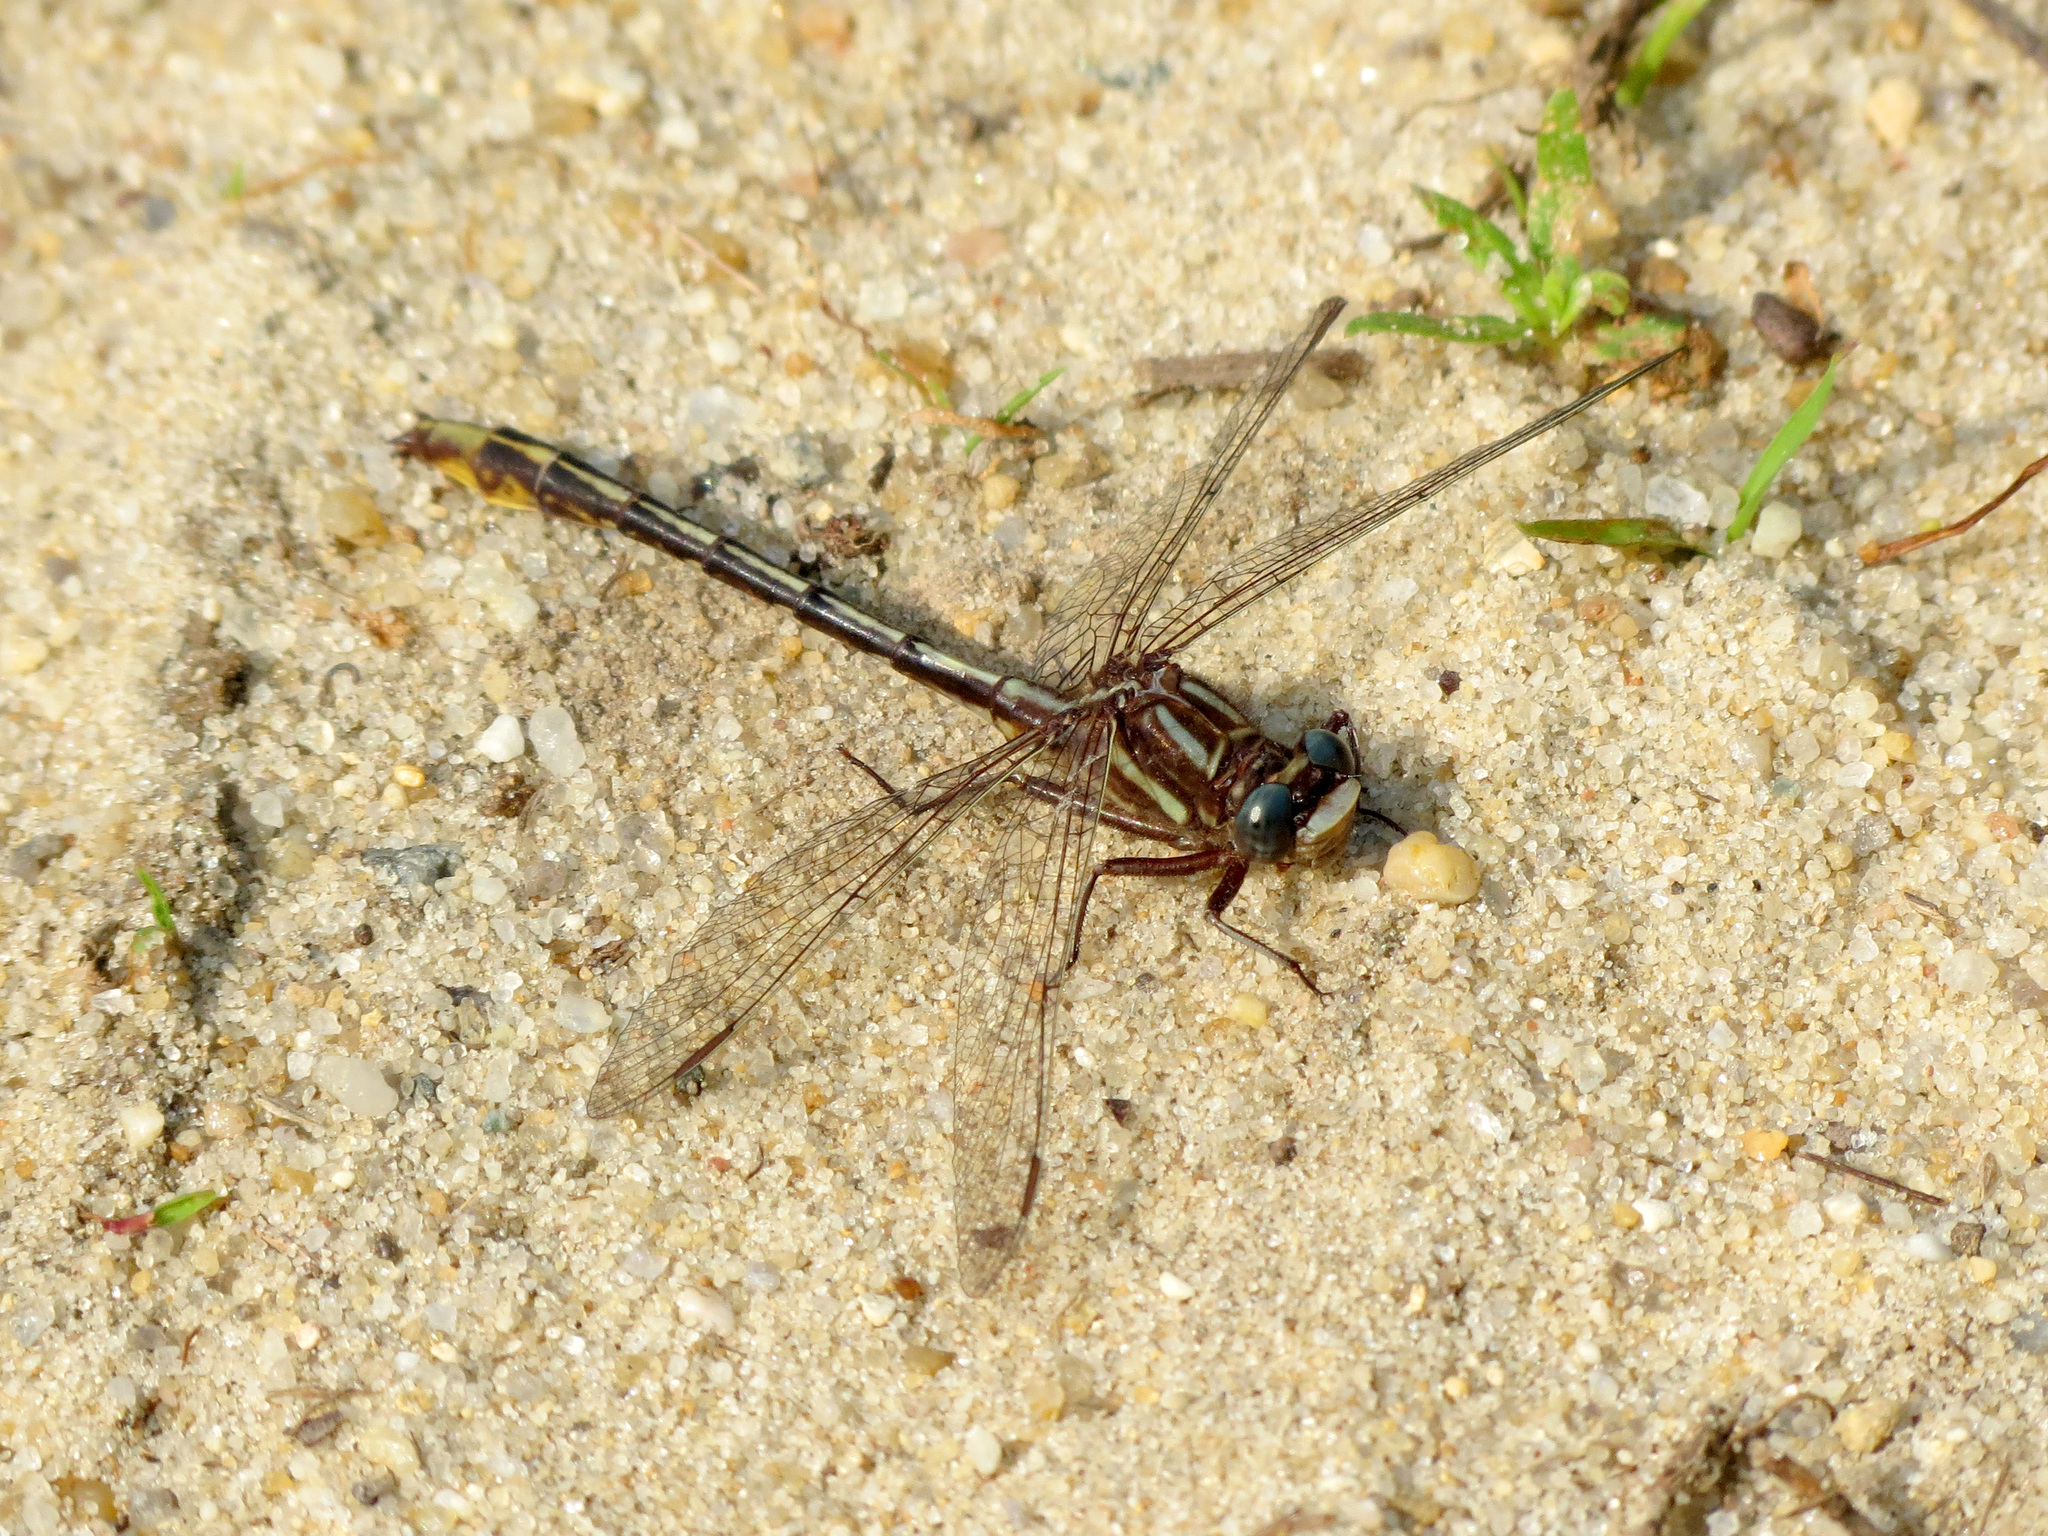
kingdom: Animalia
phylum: Arthropoda
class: Insecta
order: Odonata
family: Gomphidae
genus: Phanogomphus
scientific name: Phanogomphus exilis
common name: Lancet clubtail
